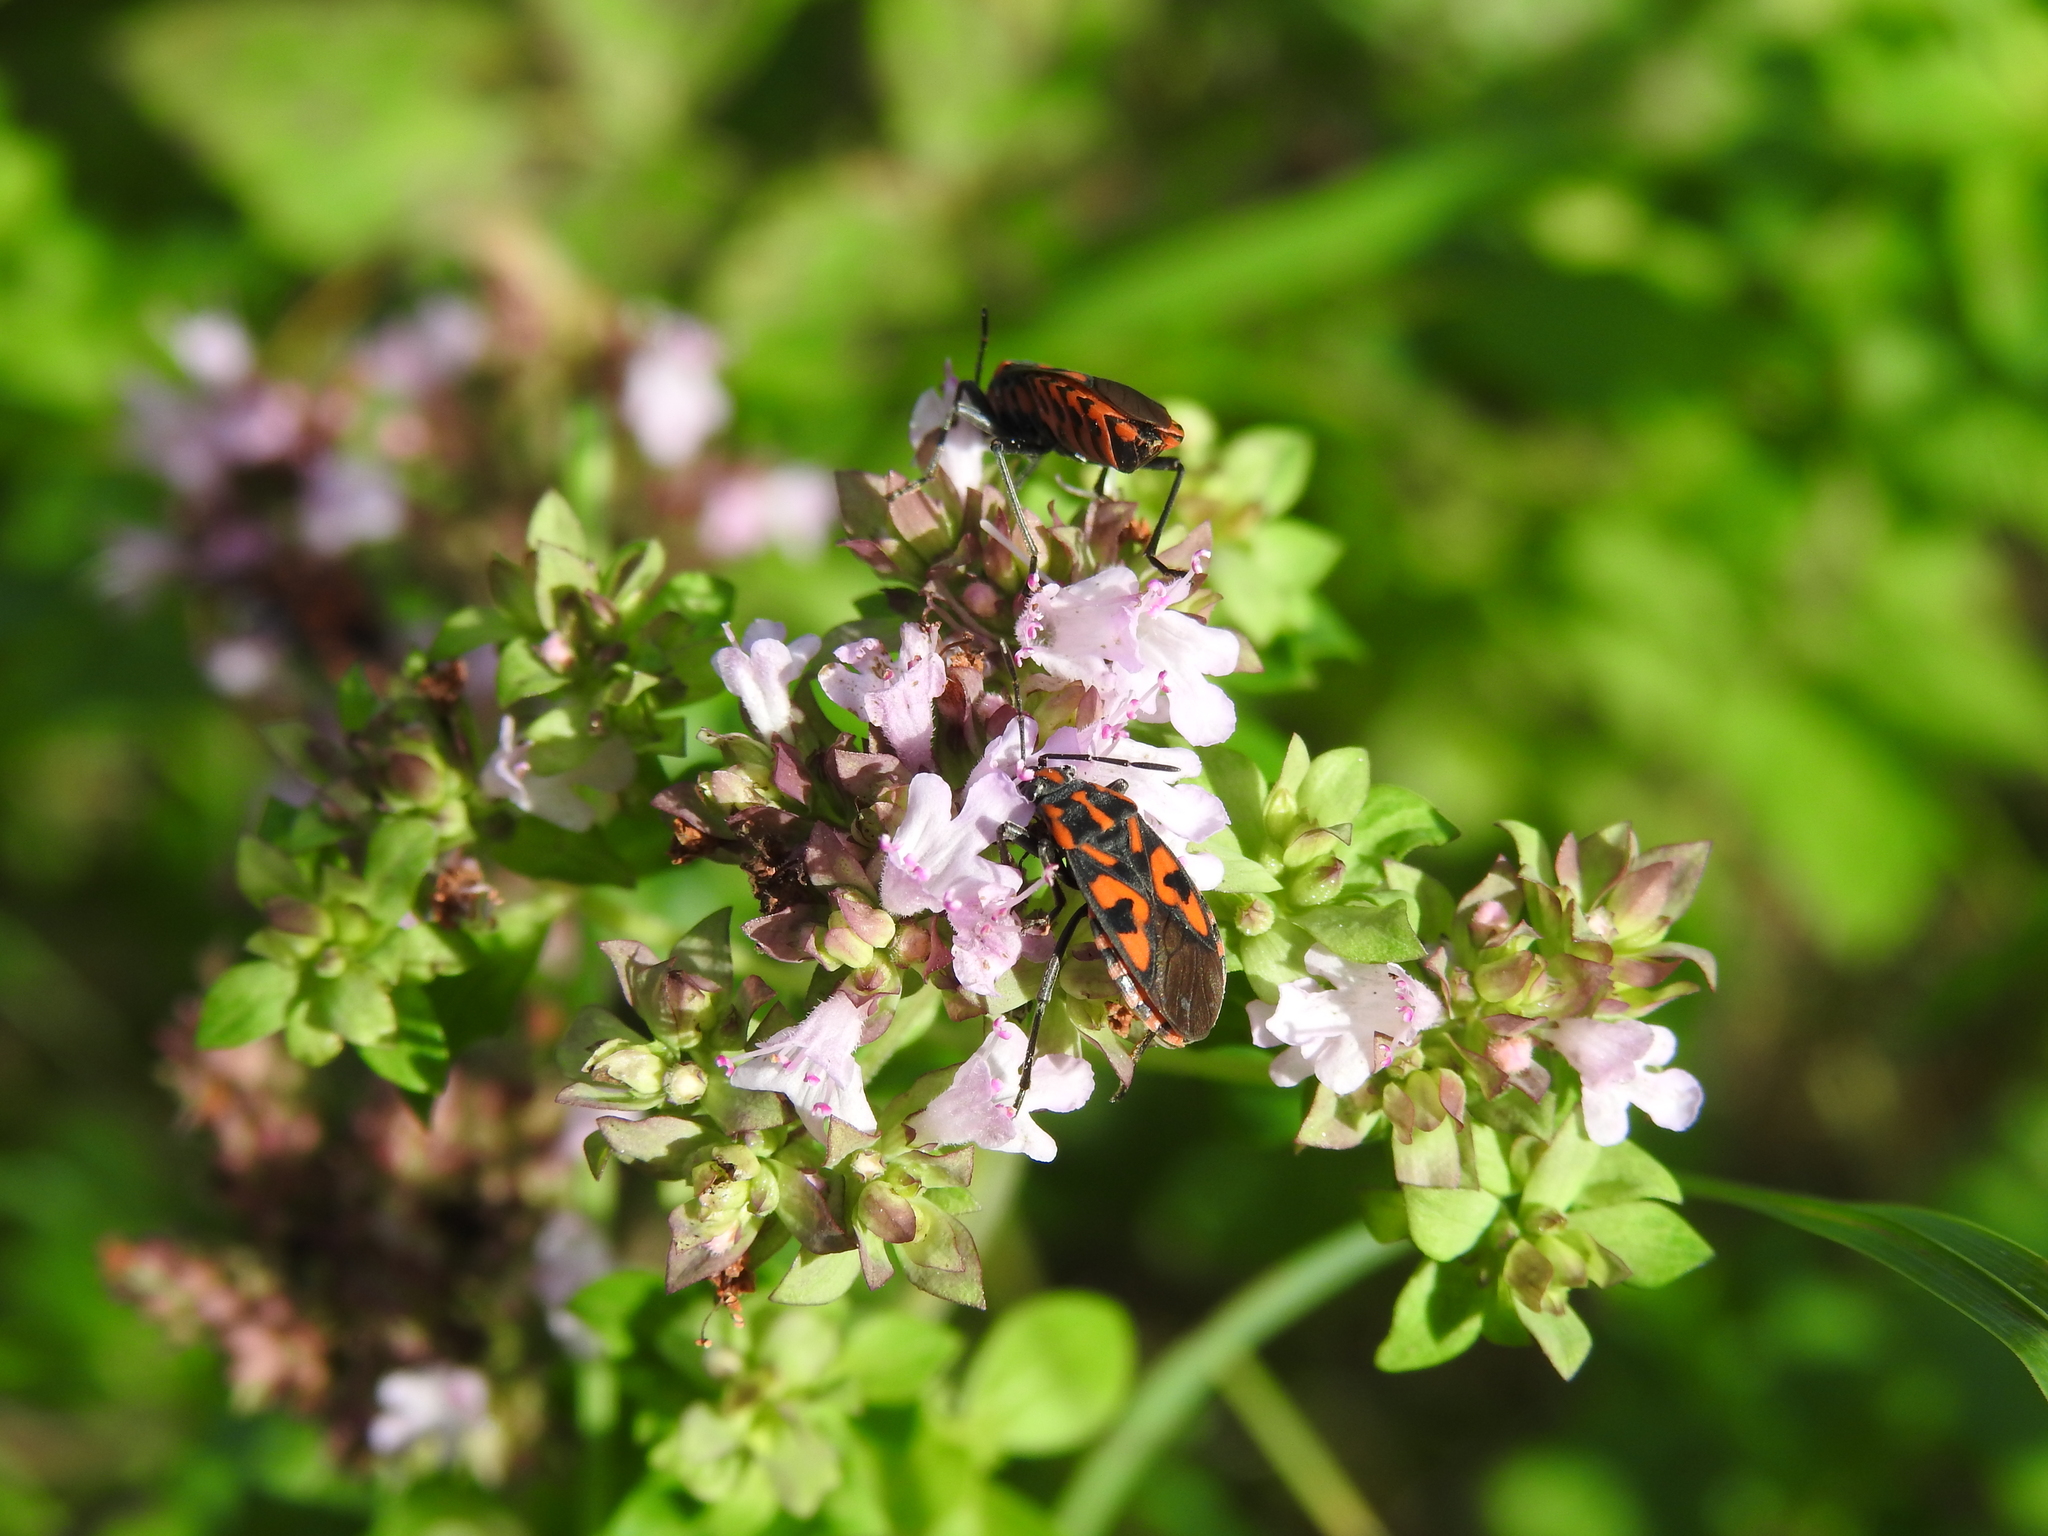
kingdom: Animalia
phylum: Arthropoda
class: Insecta
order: Hemiptera
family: Lygaeidae
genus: Spilostethus
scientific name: Spilostethus saxatilis
